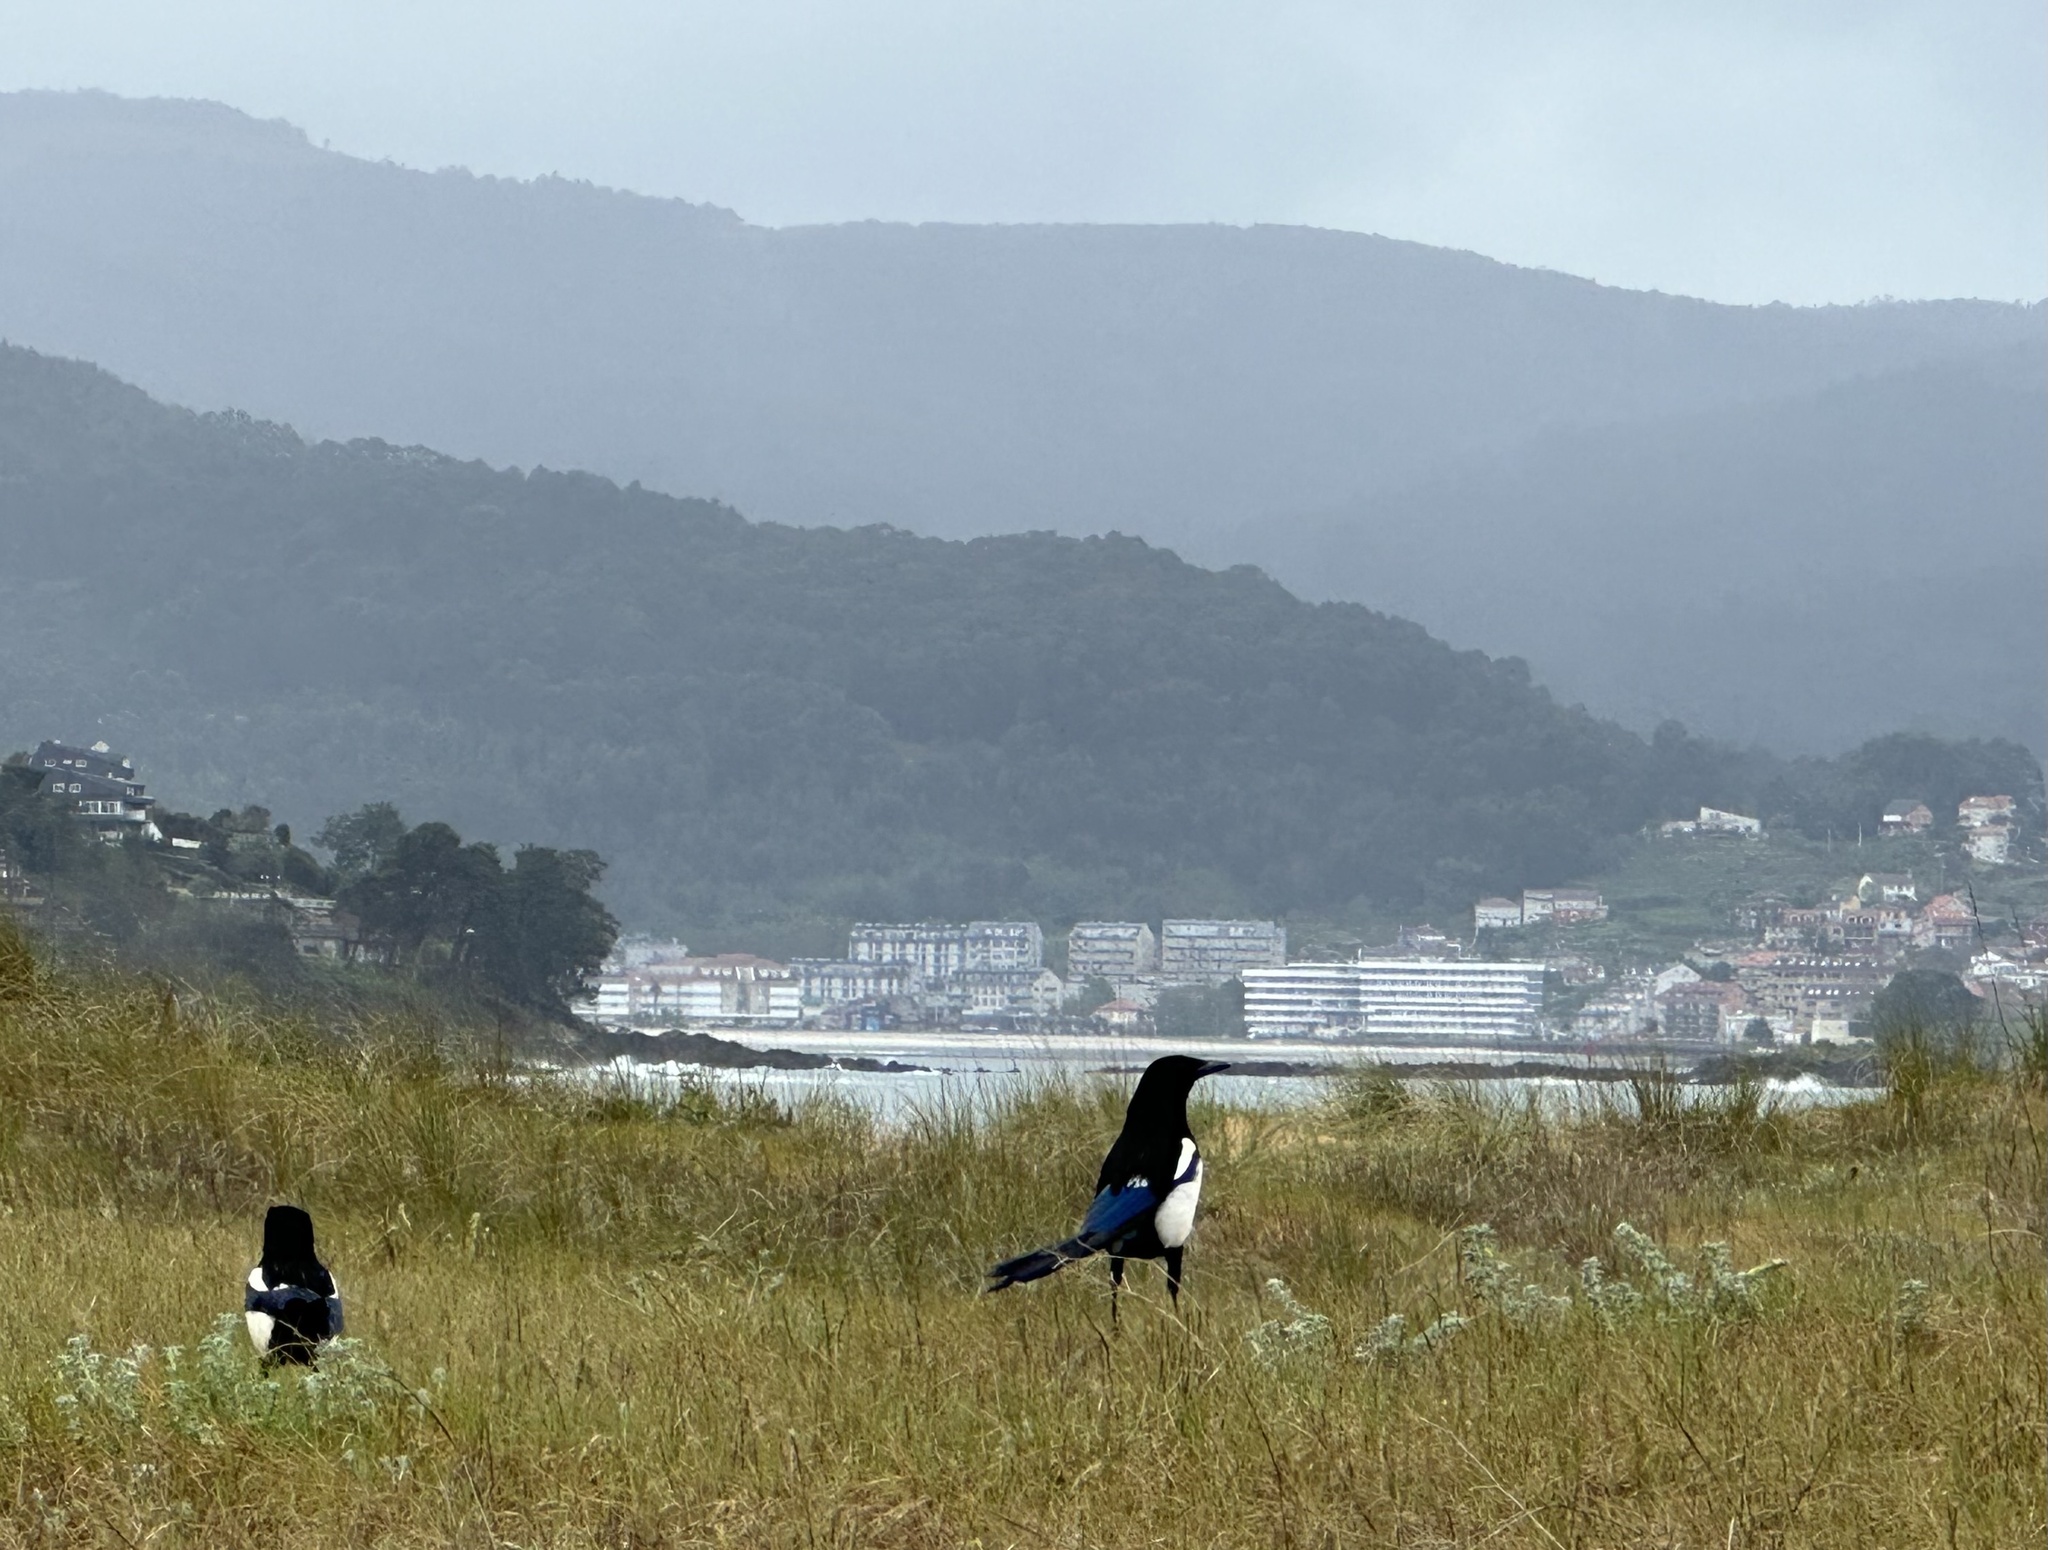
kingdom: Animalia
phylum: Chordata
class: Aves
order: Passeriformes
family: Corvidae
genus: Pica
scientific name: Pica pica
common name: Eurasian magpie
